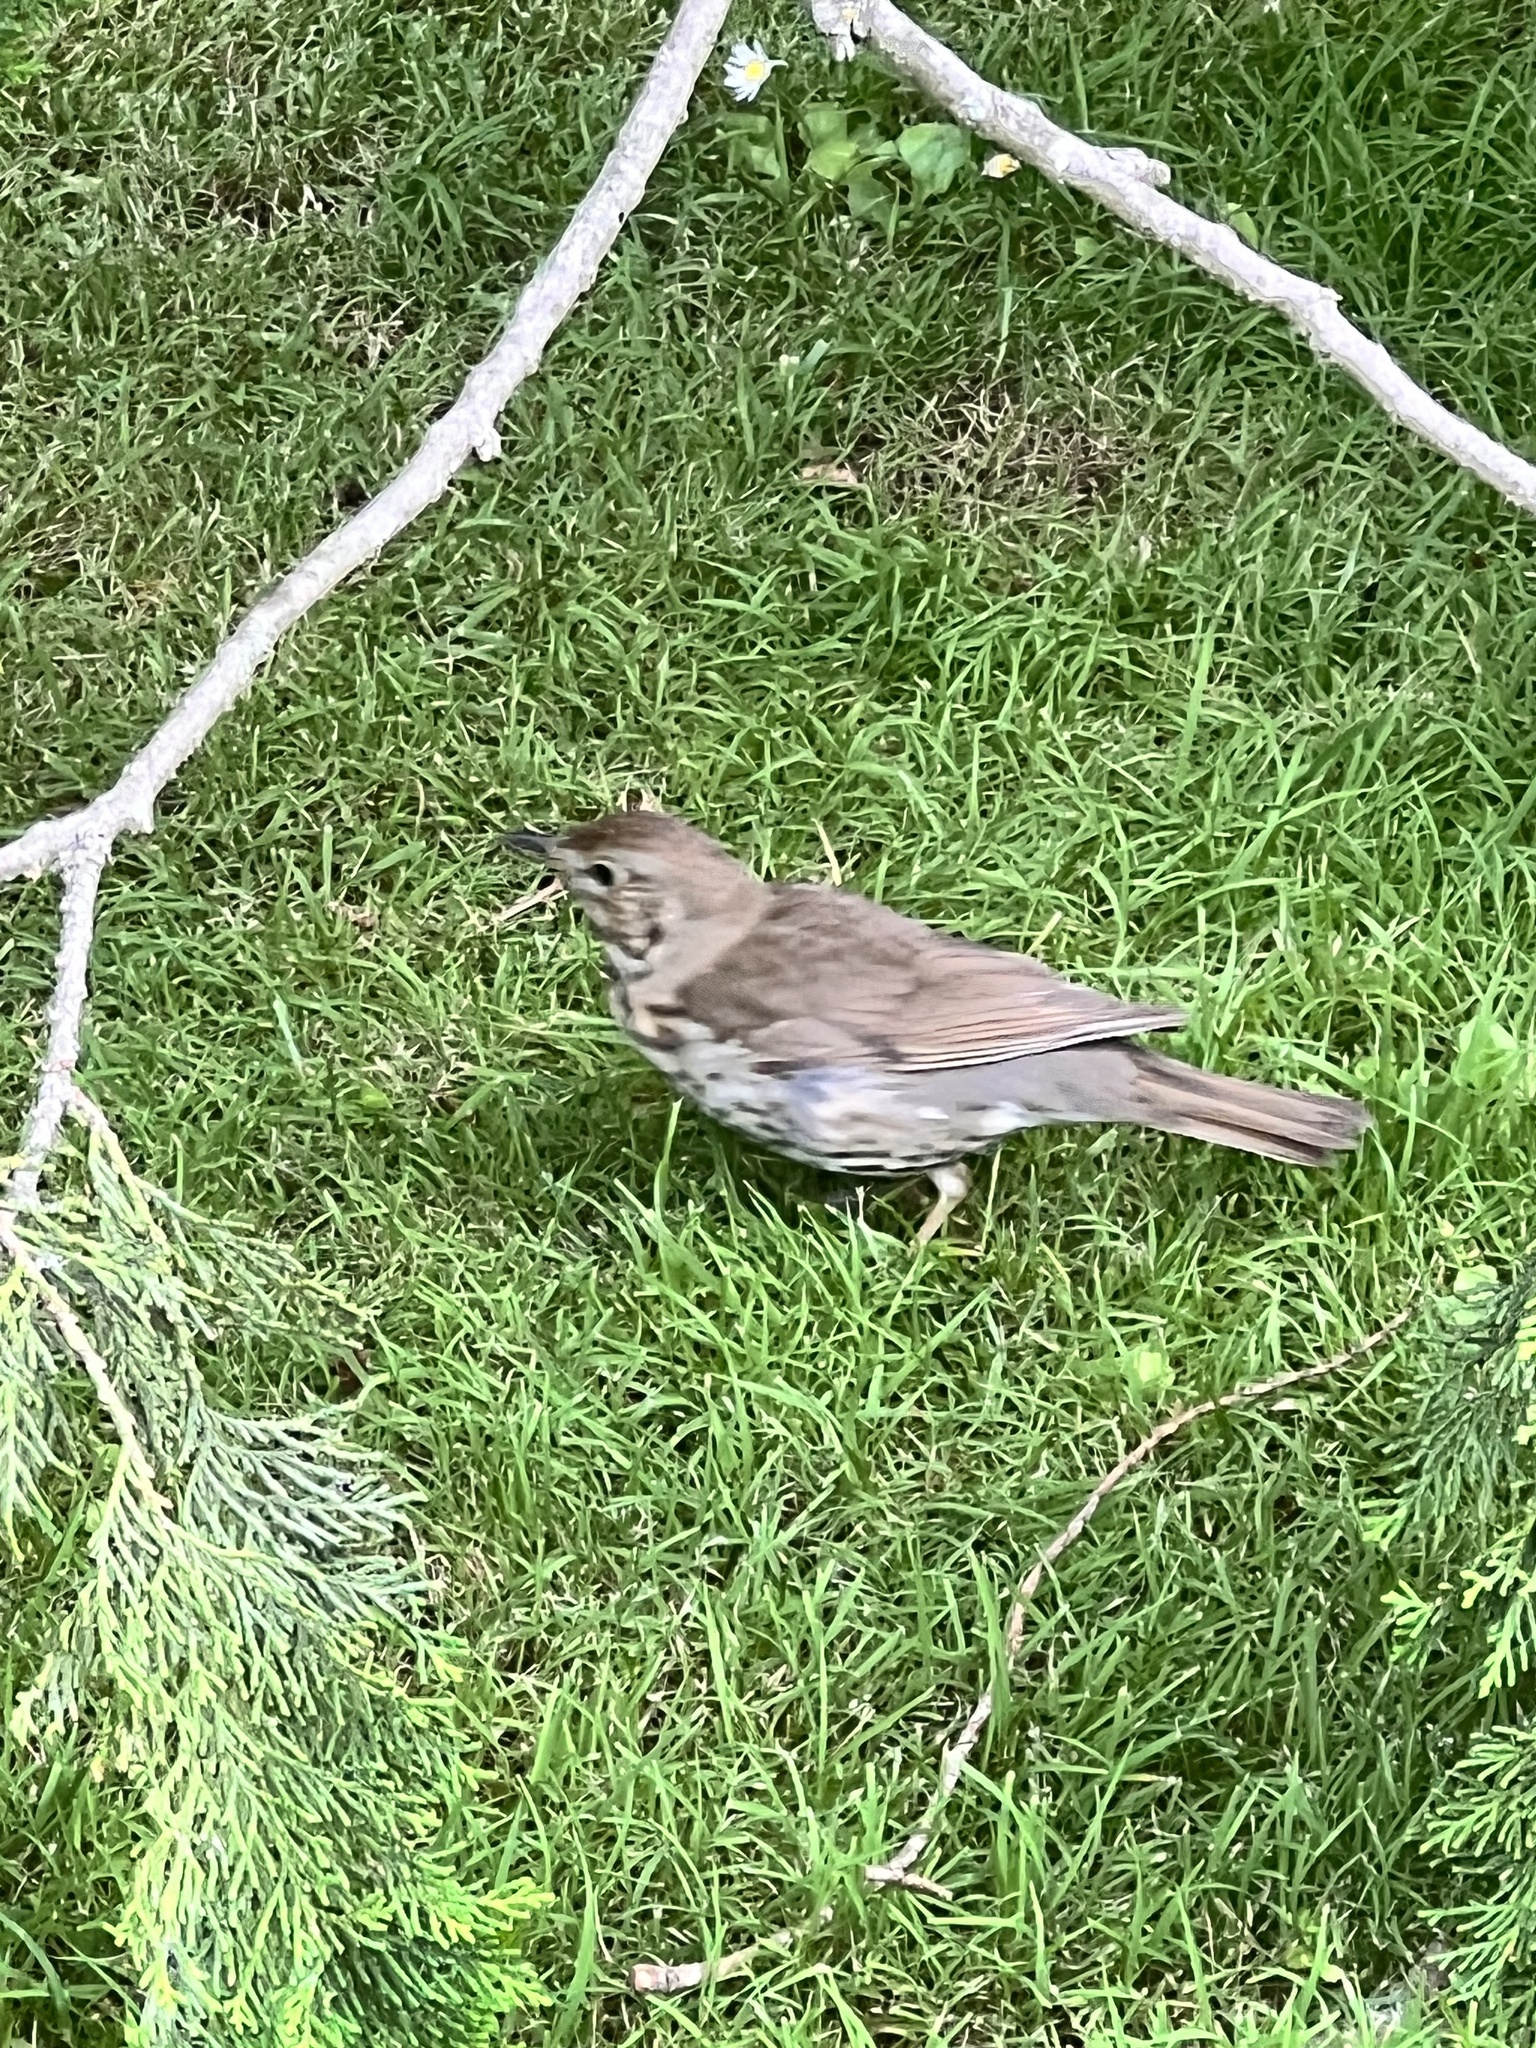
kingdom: Animalia
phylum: Chordata
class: Aves
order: Passeriformes
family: Turdidae
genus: Turdus
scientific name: Turdus philomelos
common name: Song thrush
